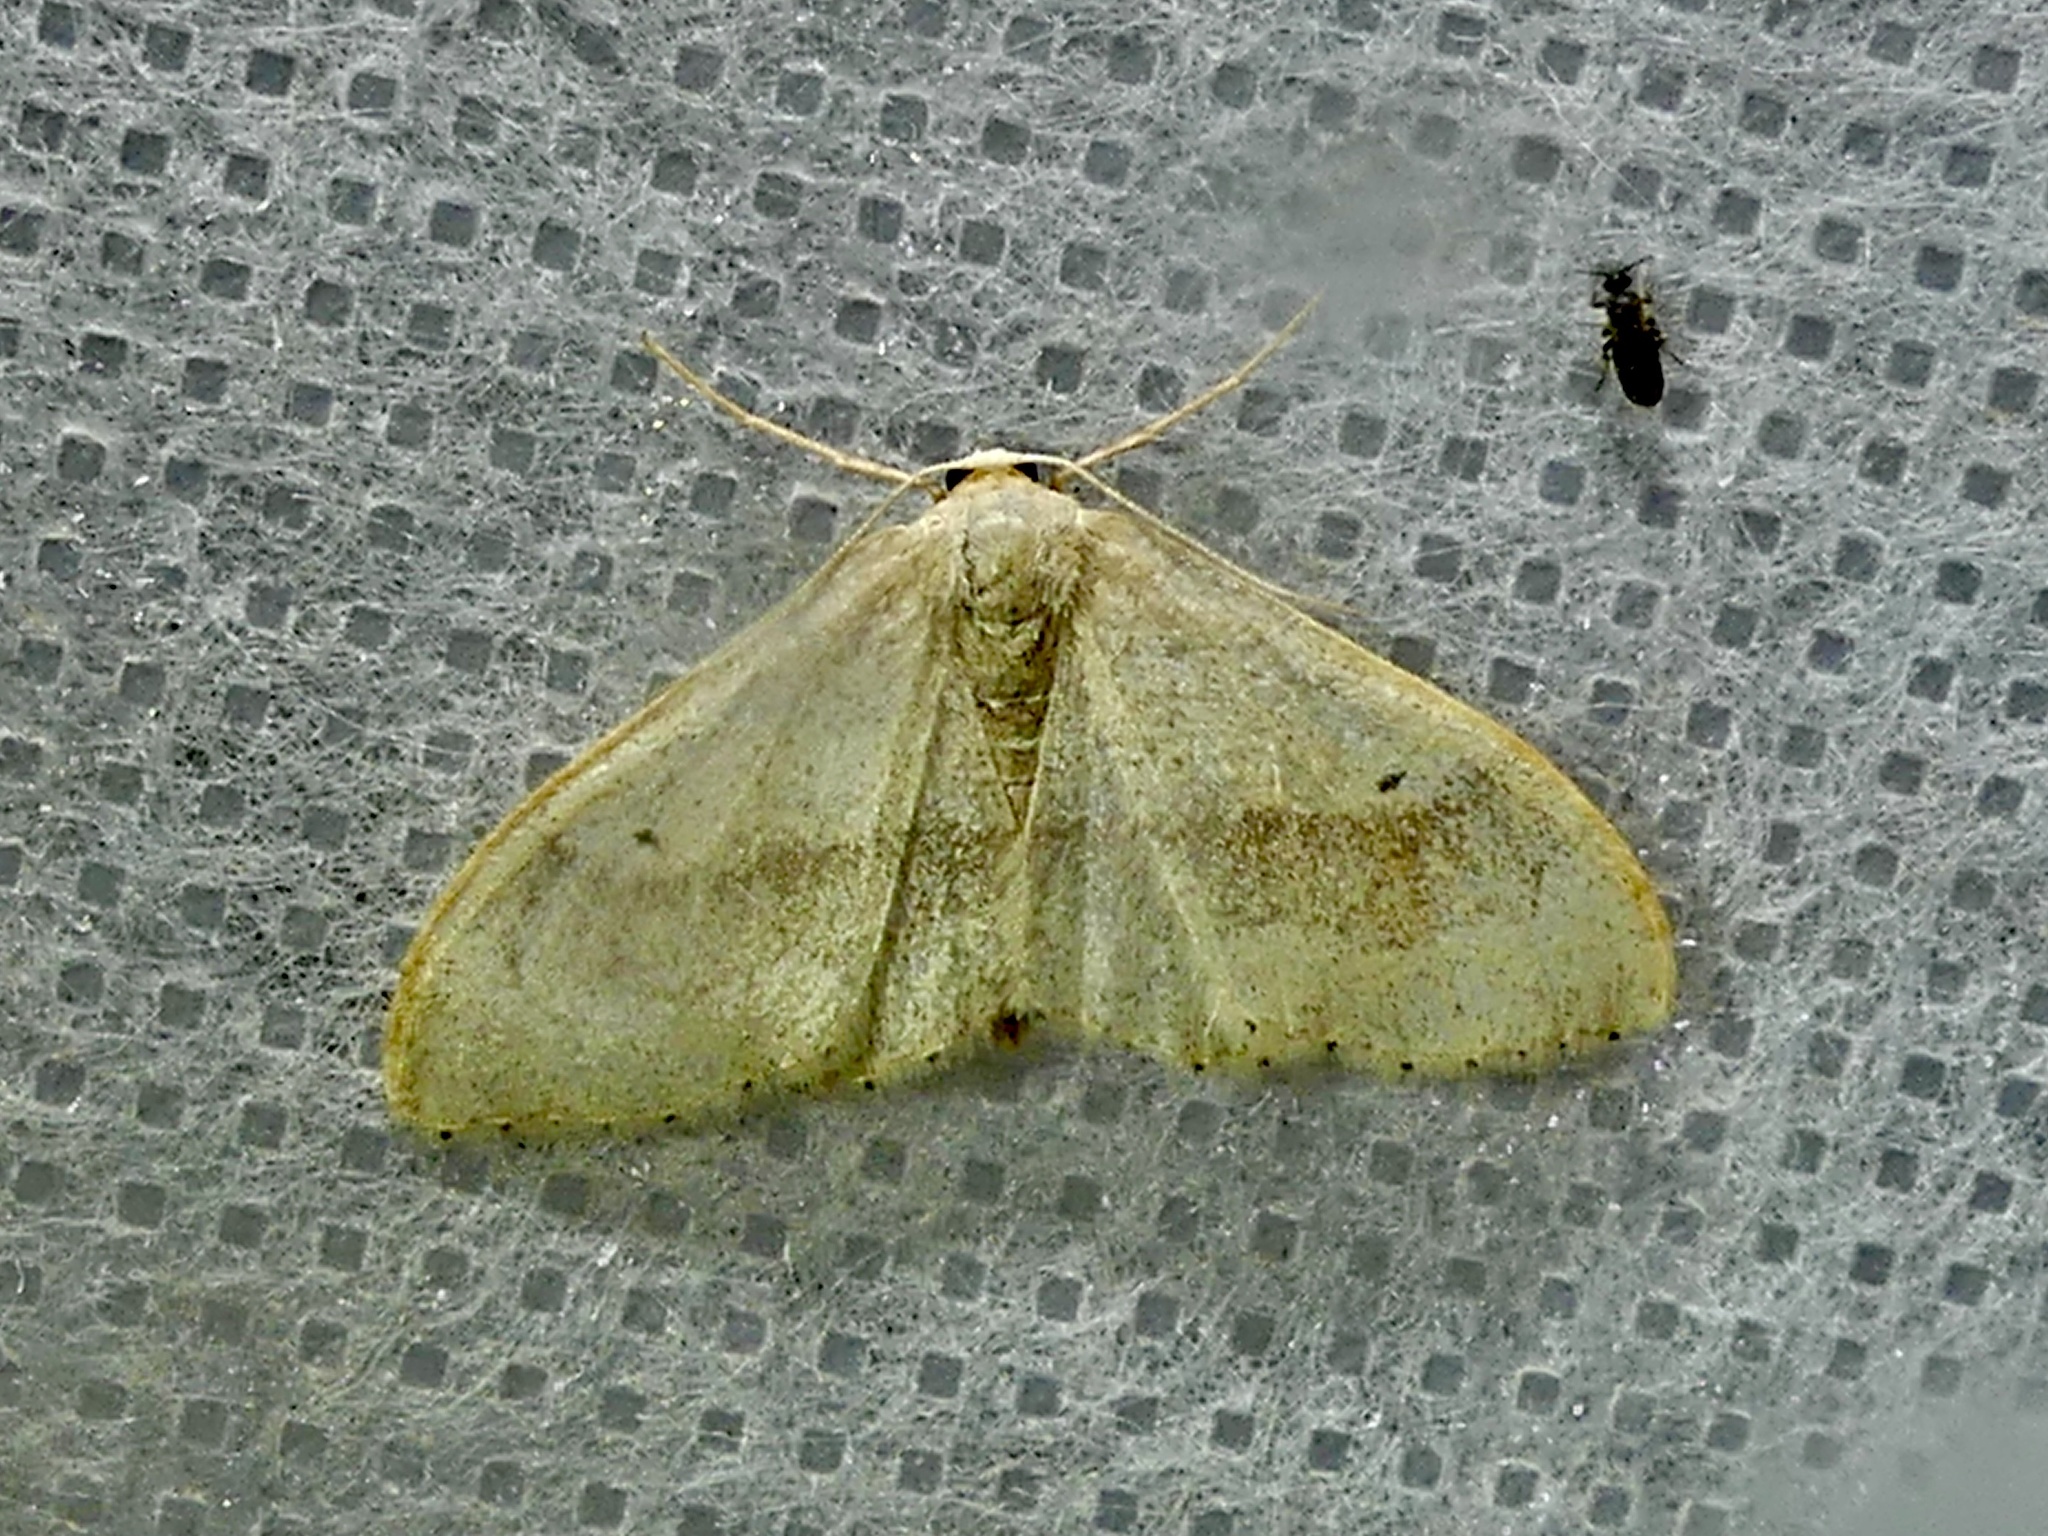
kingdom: Animalia
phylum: Arthropoda
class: Insecta
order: Lepidoptera
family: Geometridae
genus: Idaea
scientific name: Idaea aversata
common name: Riband wave
